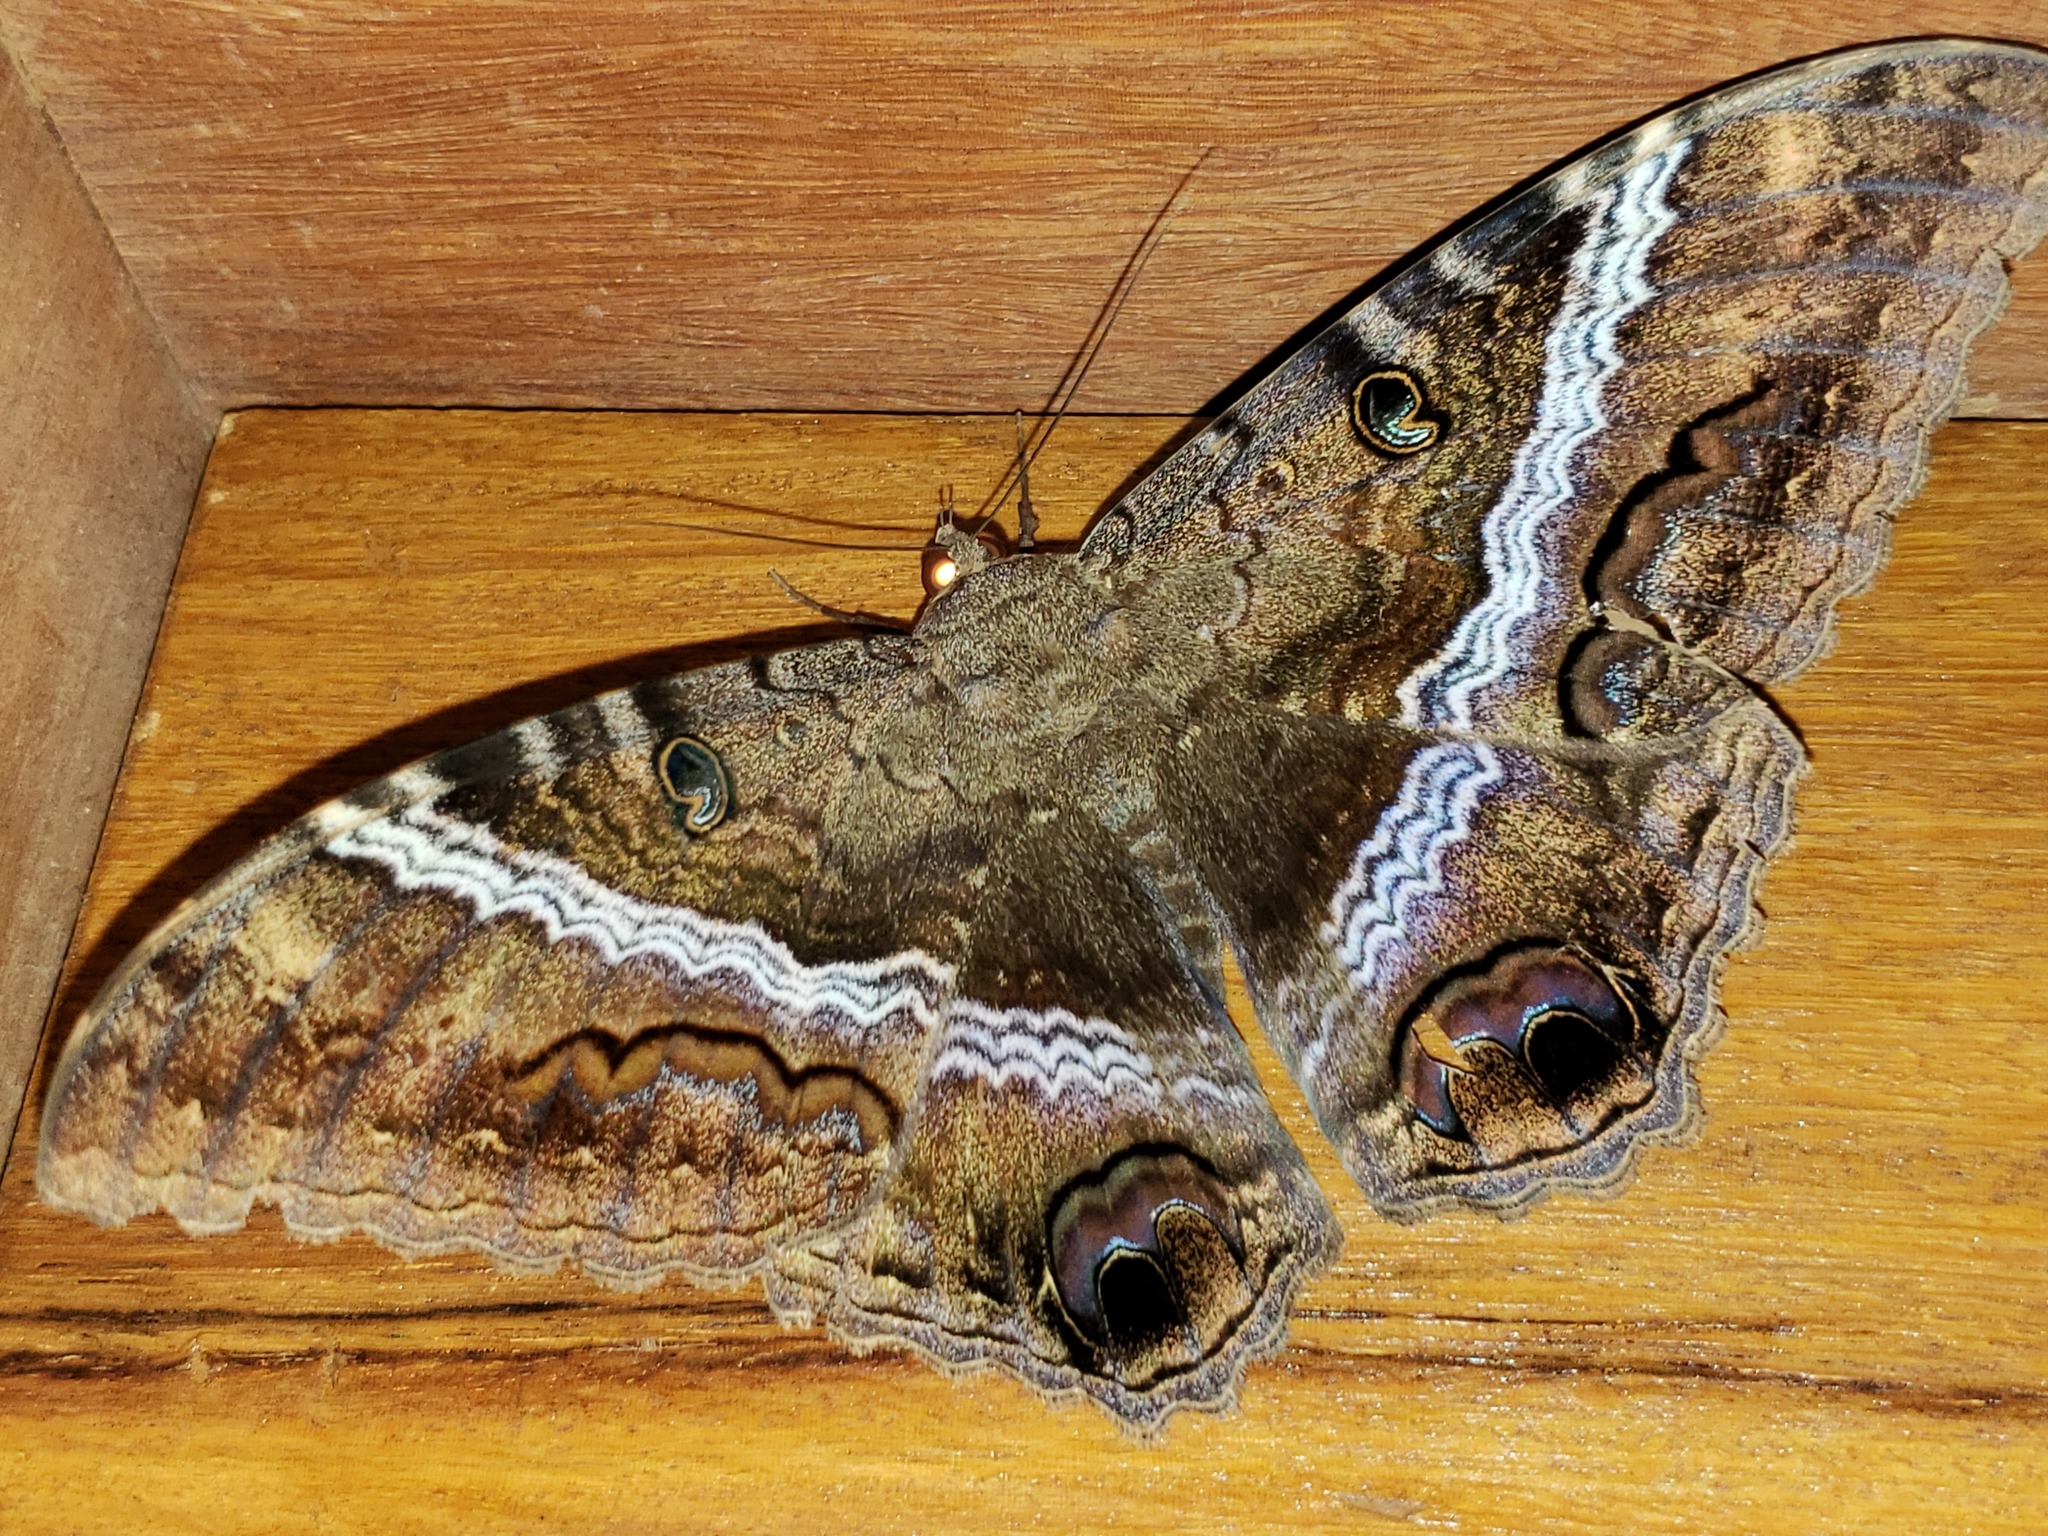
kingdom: Animalia
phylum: Arthropoda
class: Insecta
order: Lepidoptera
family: Erebidae
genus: Ascalapha
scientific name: Ascalapha odorata
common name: Black witch
